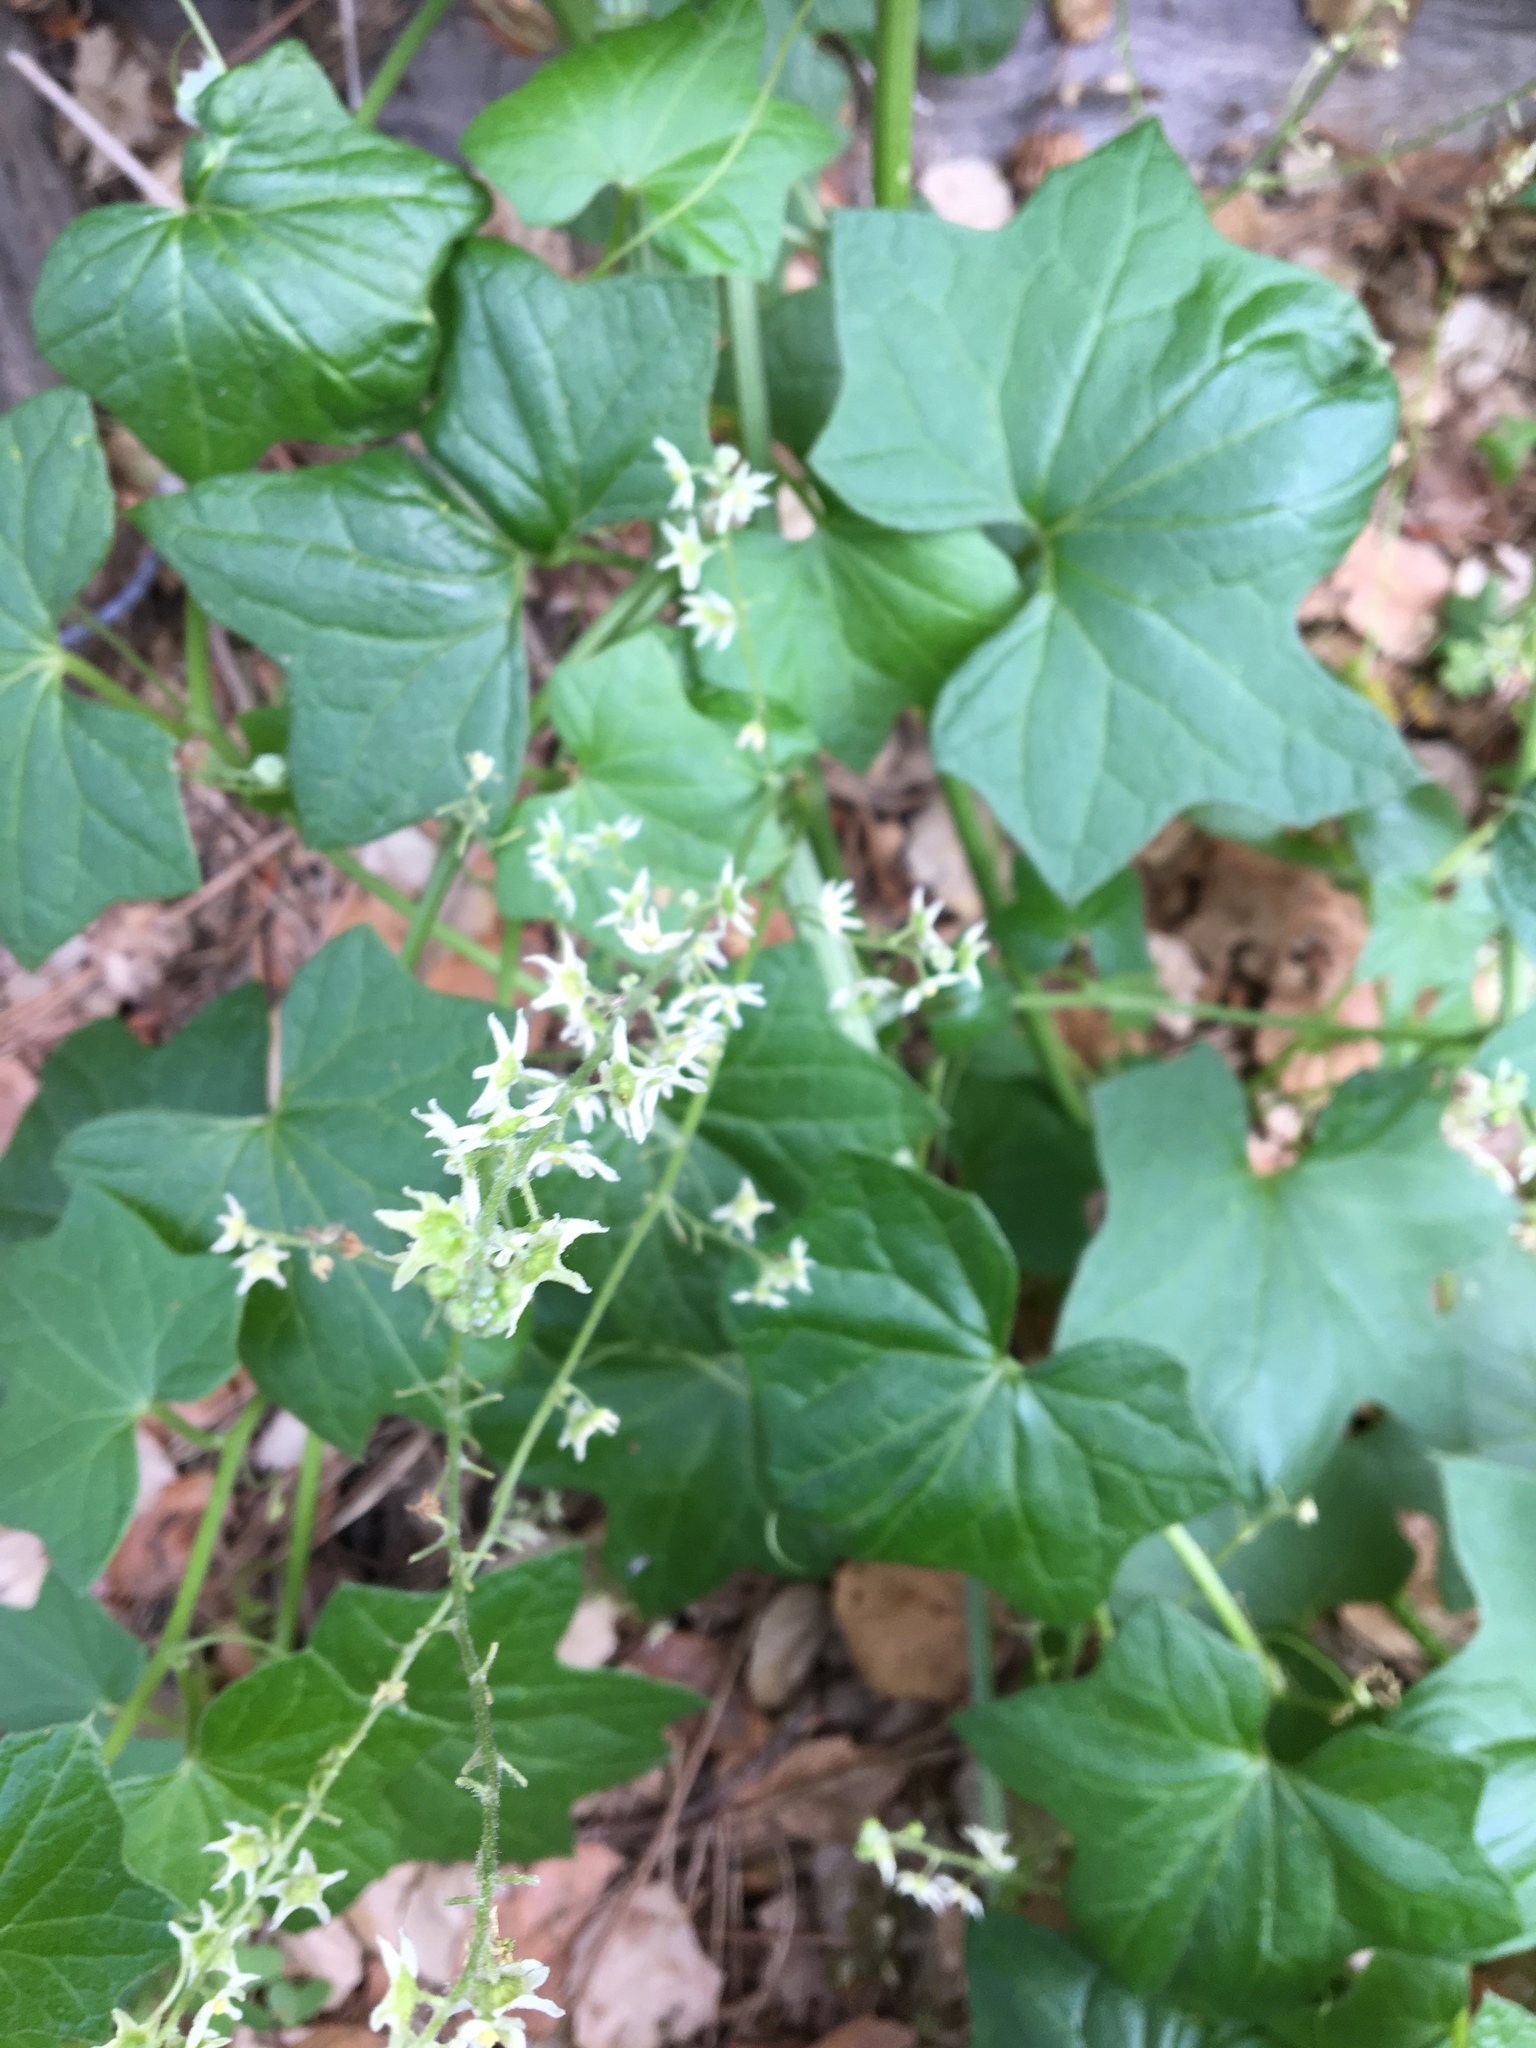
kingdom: Plantae
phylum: Tracheophyta
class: Magnoliopsida
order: Cucurbitales
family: Cucurbitaceae
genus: Marah
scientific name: Marah fabacea
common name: California manroot
